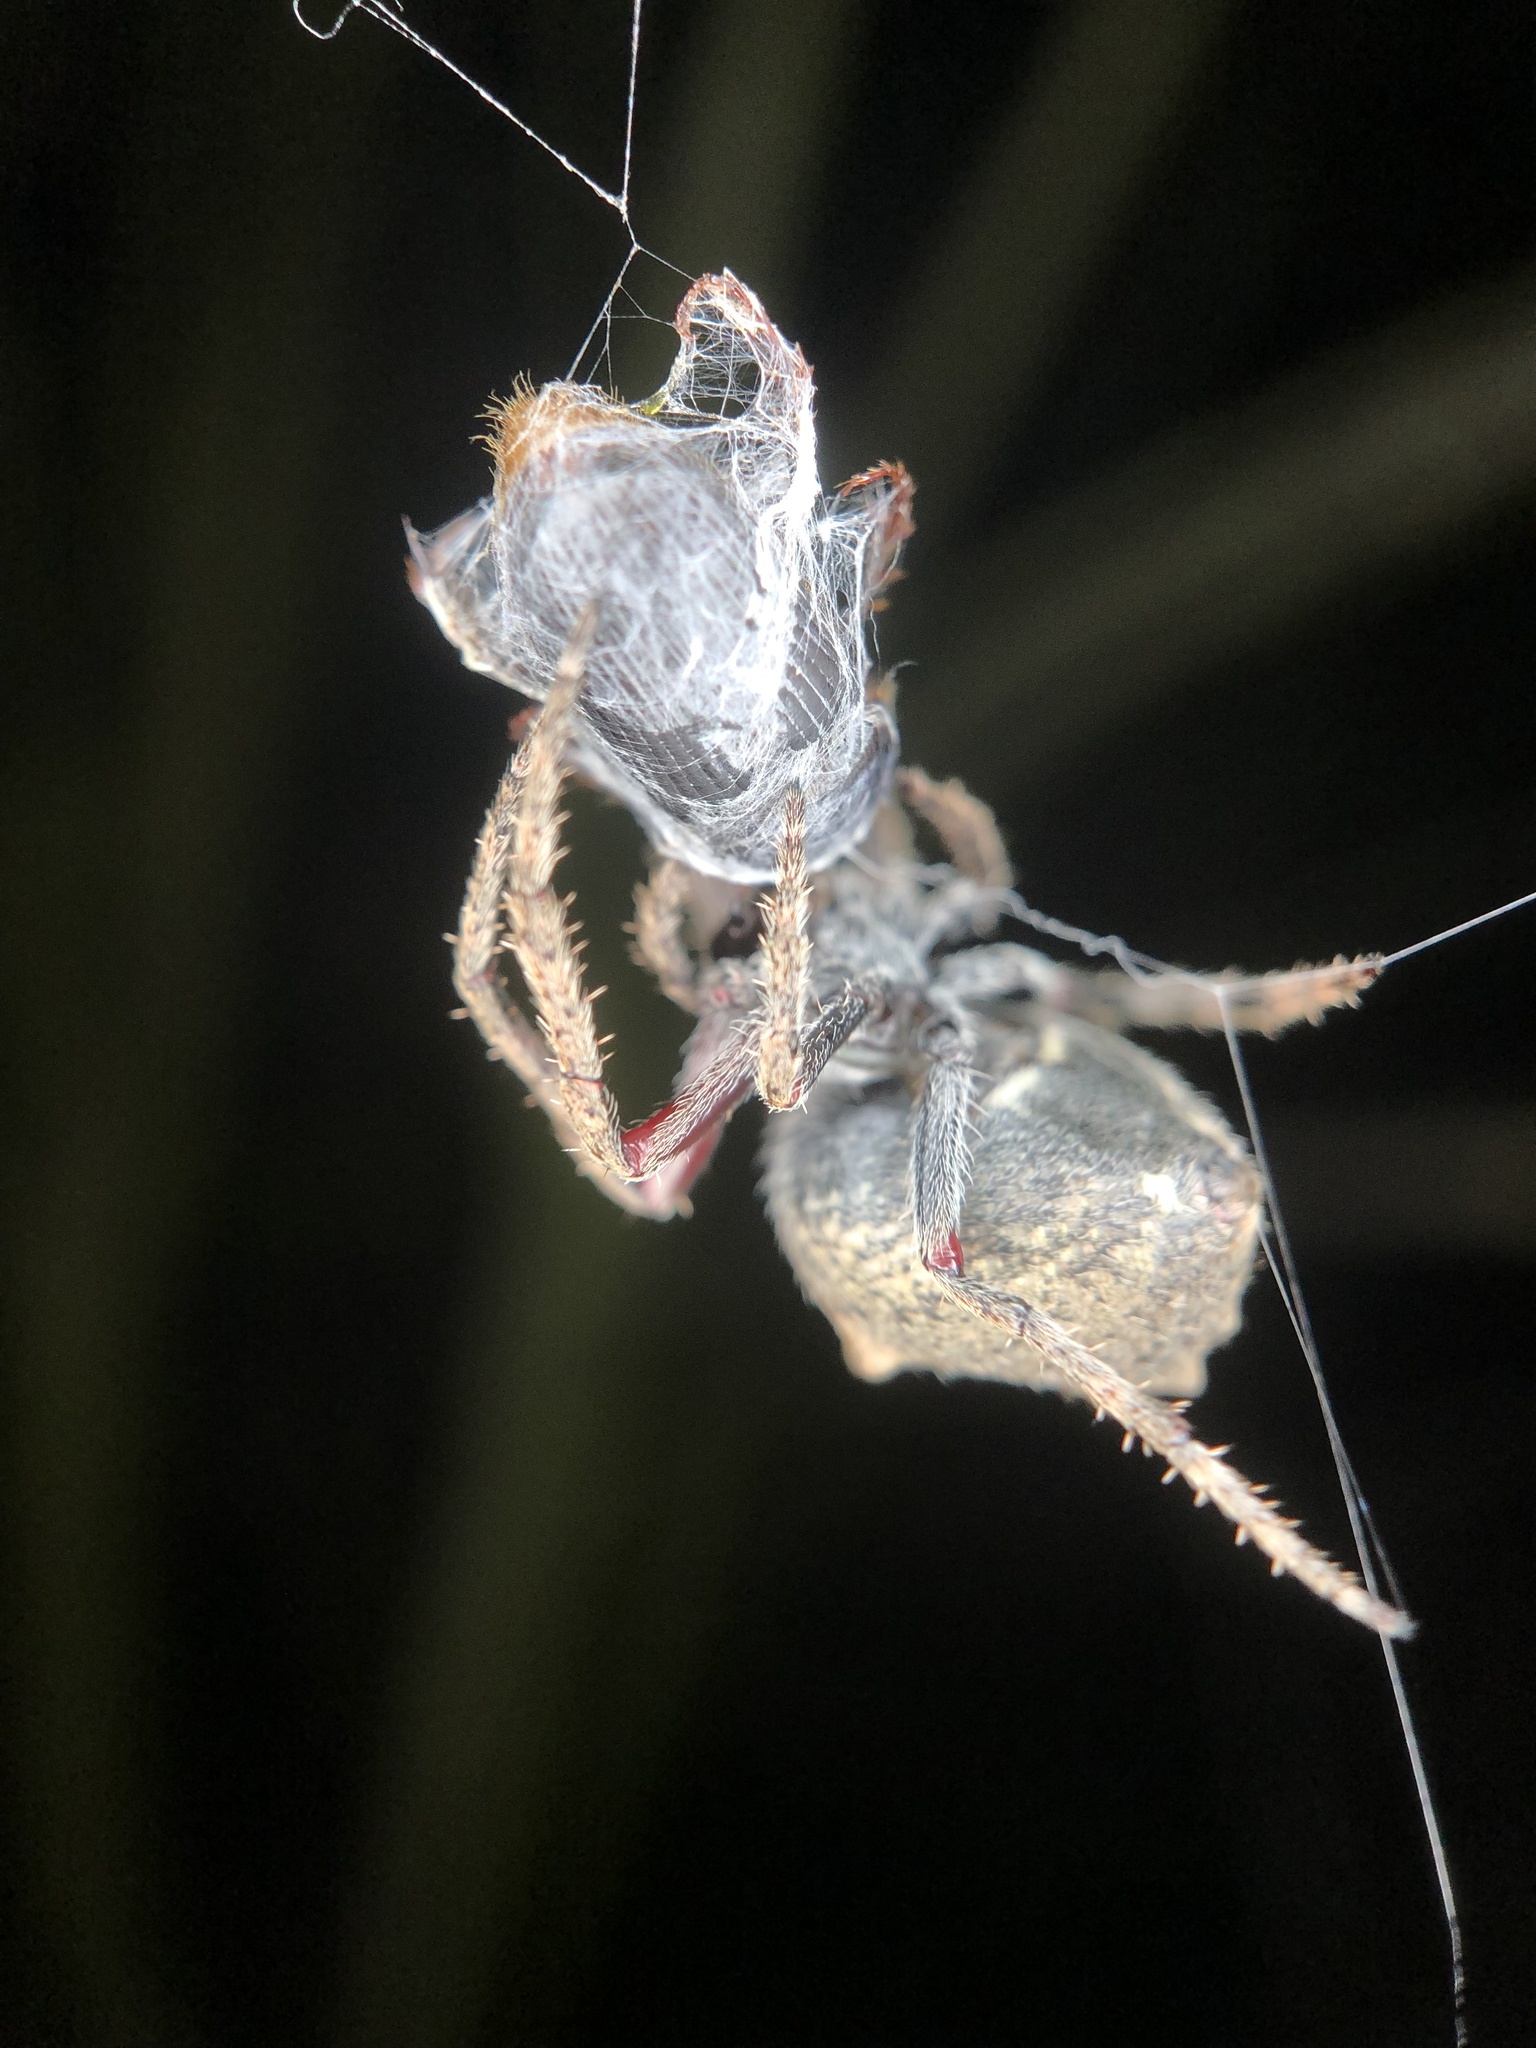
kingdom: Animalia
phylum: Arthropoda
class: Arachnida
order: Araneae
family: Araneidae
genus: Eriophora
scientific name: Eriophora pustulosa
